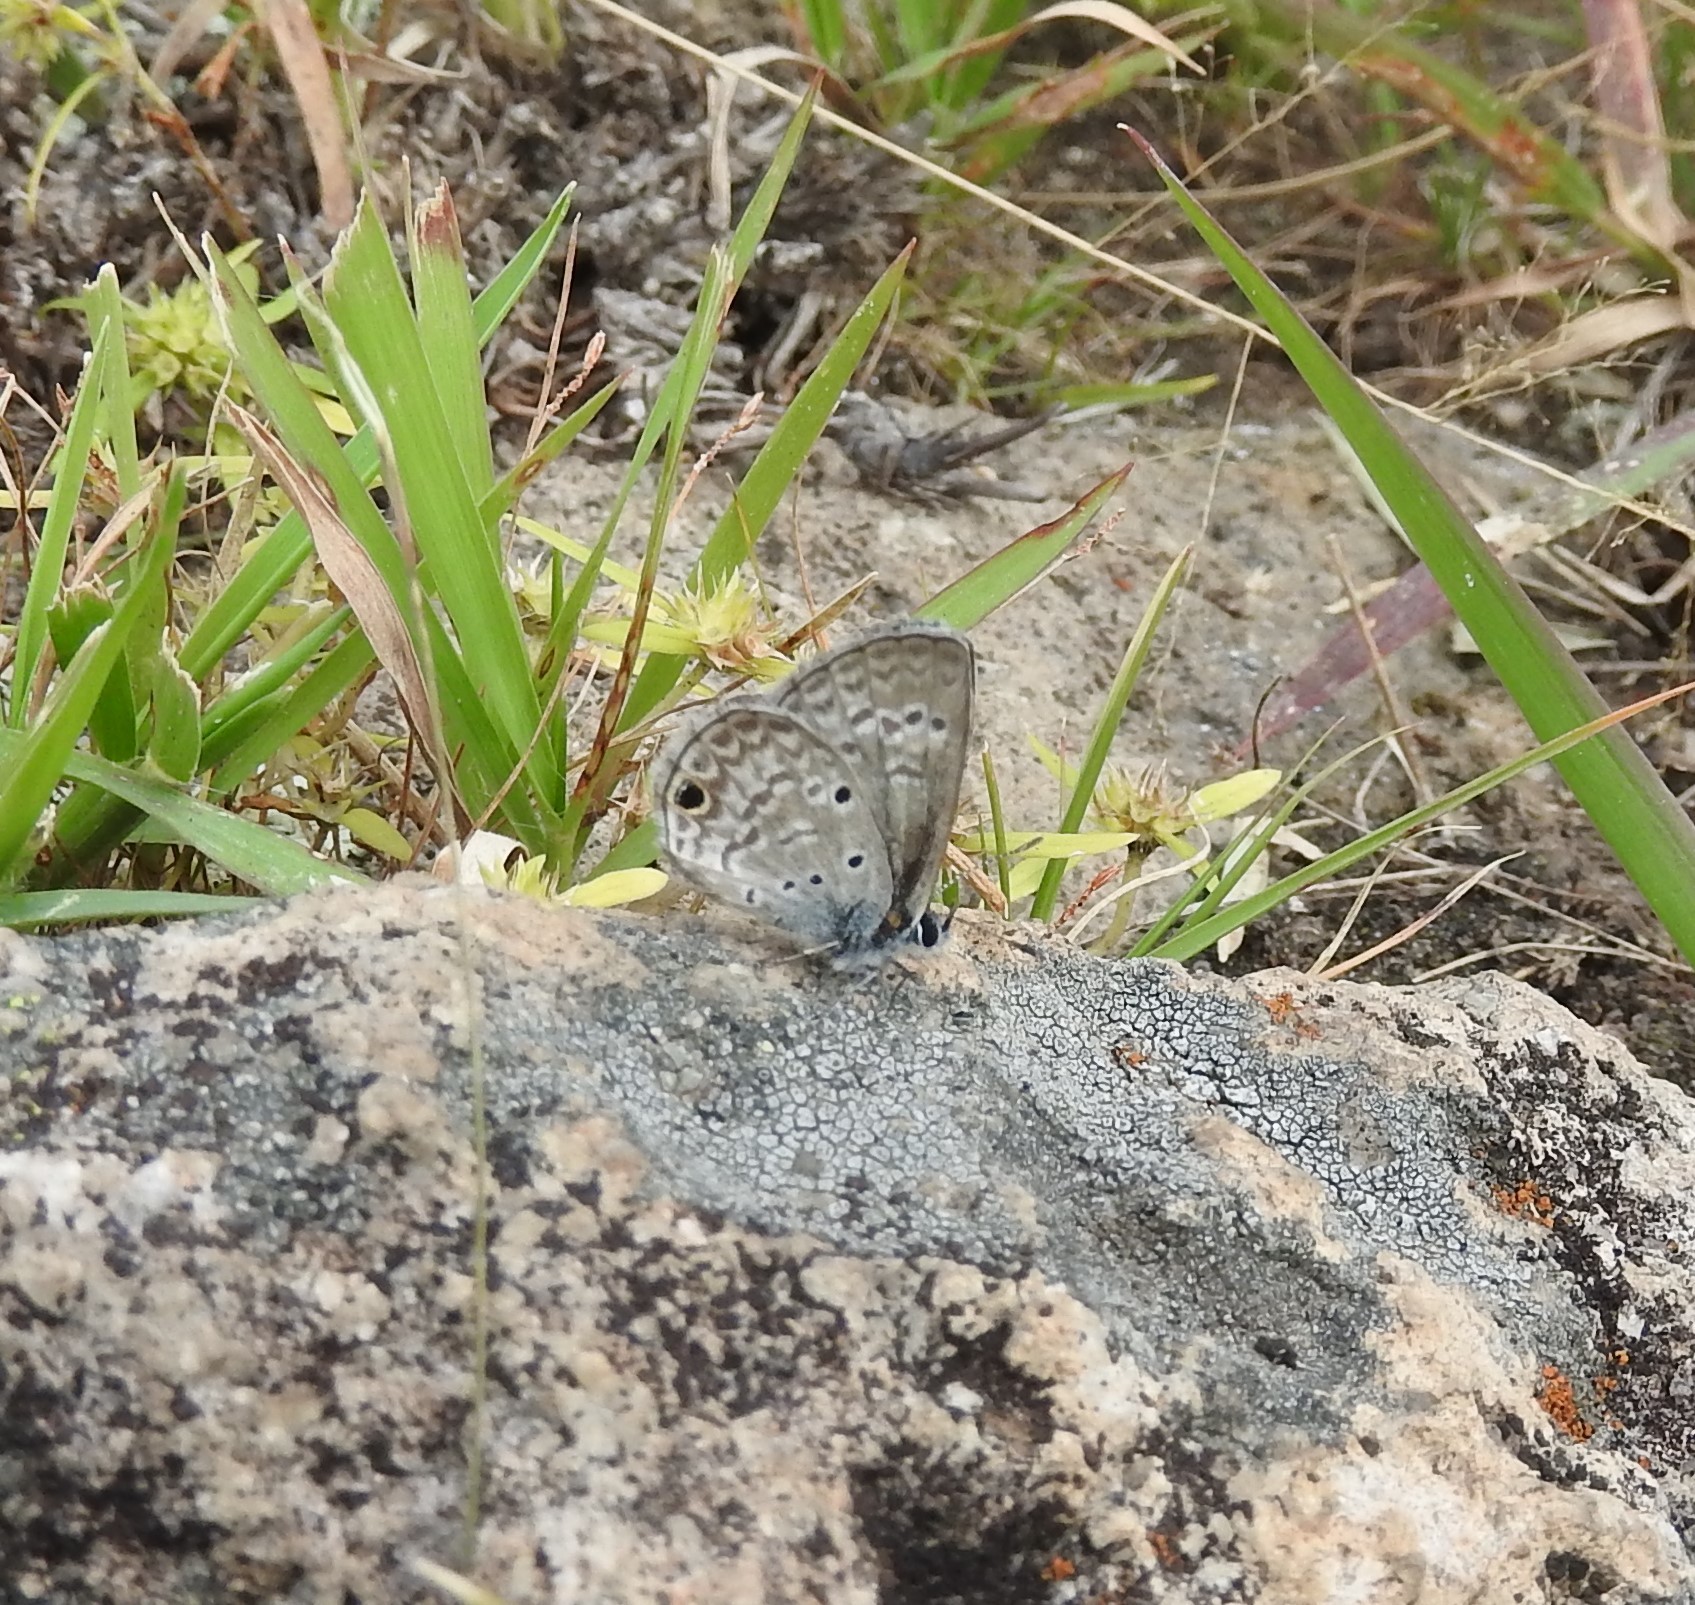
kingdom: Animalia
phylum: Arthropoda
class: Insecta
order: Lepidoptera
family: Lycaenidae
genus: Hemiargus
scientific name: Hemiargus ceraunus
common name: Ceraunus blue
